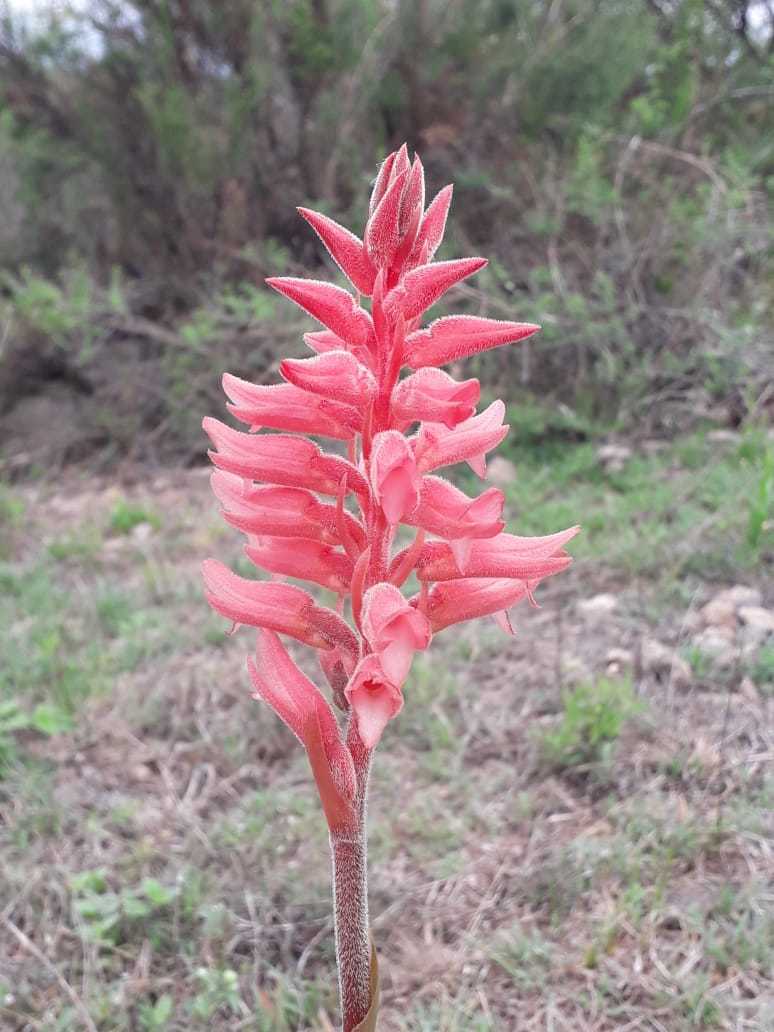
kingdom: Plantae
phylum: Tracheophyta
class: Liliopsida
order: Asparagales
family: Orchidaceae
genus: Sacoila
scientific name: Sacoila lanceolata
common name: Leafless beaked ladiestresses
